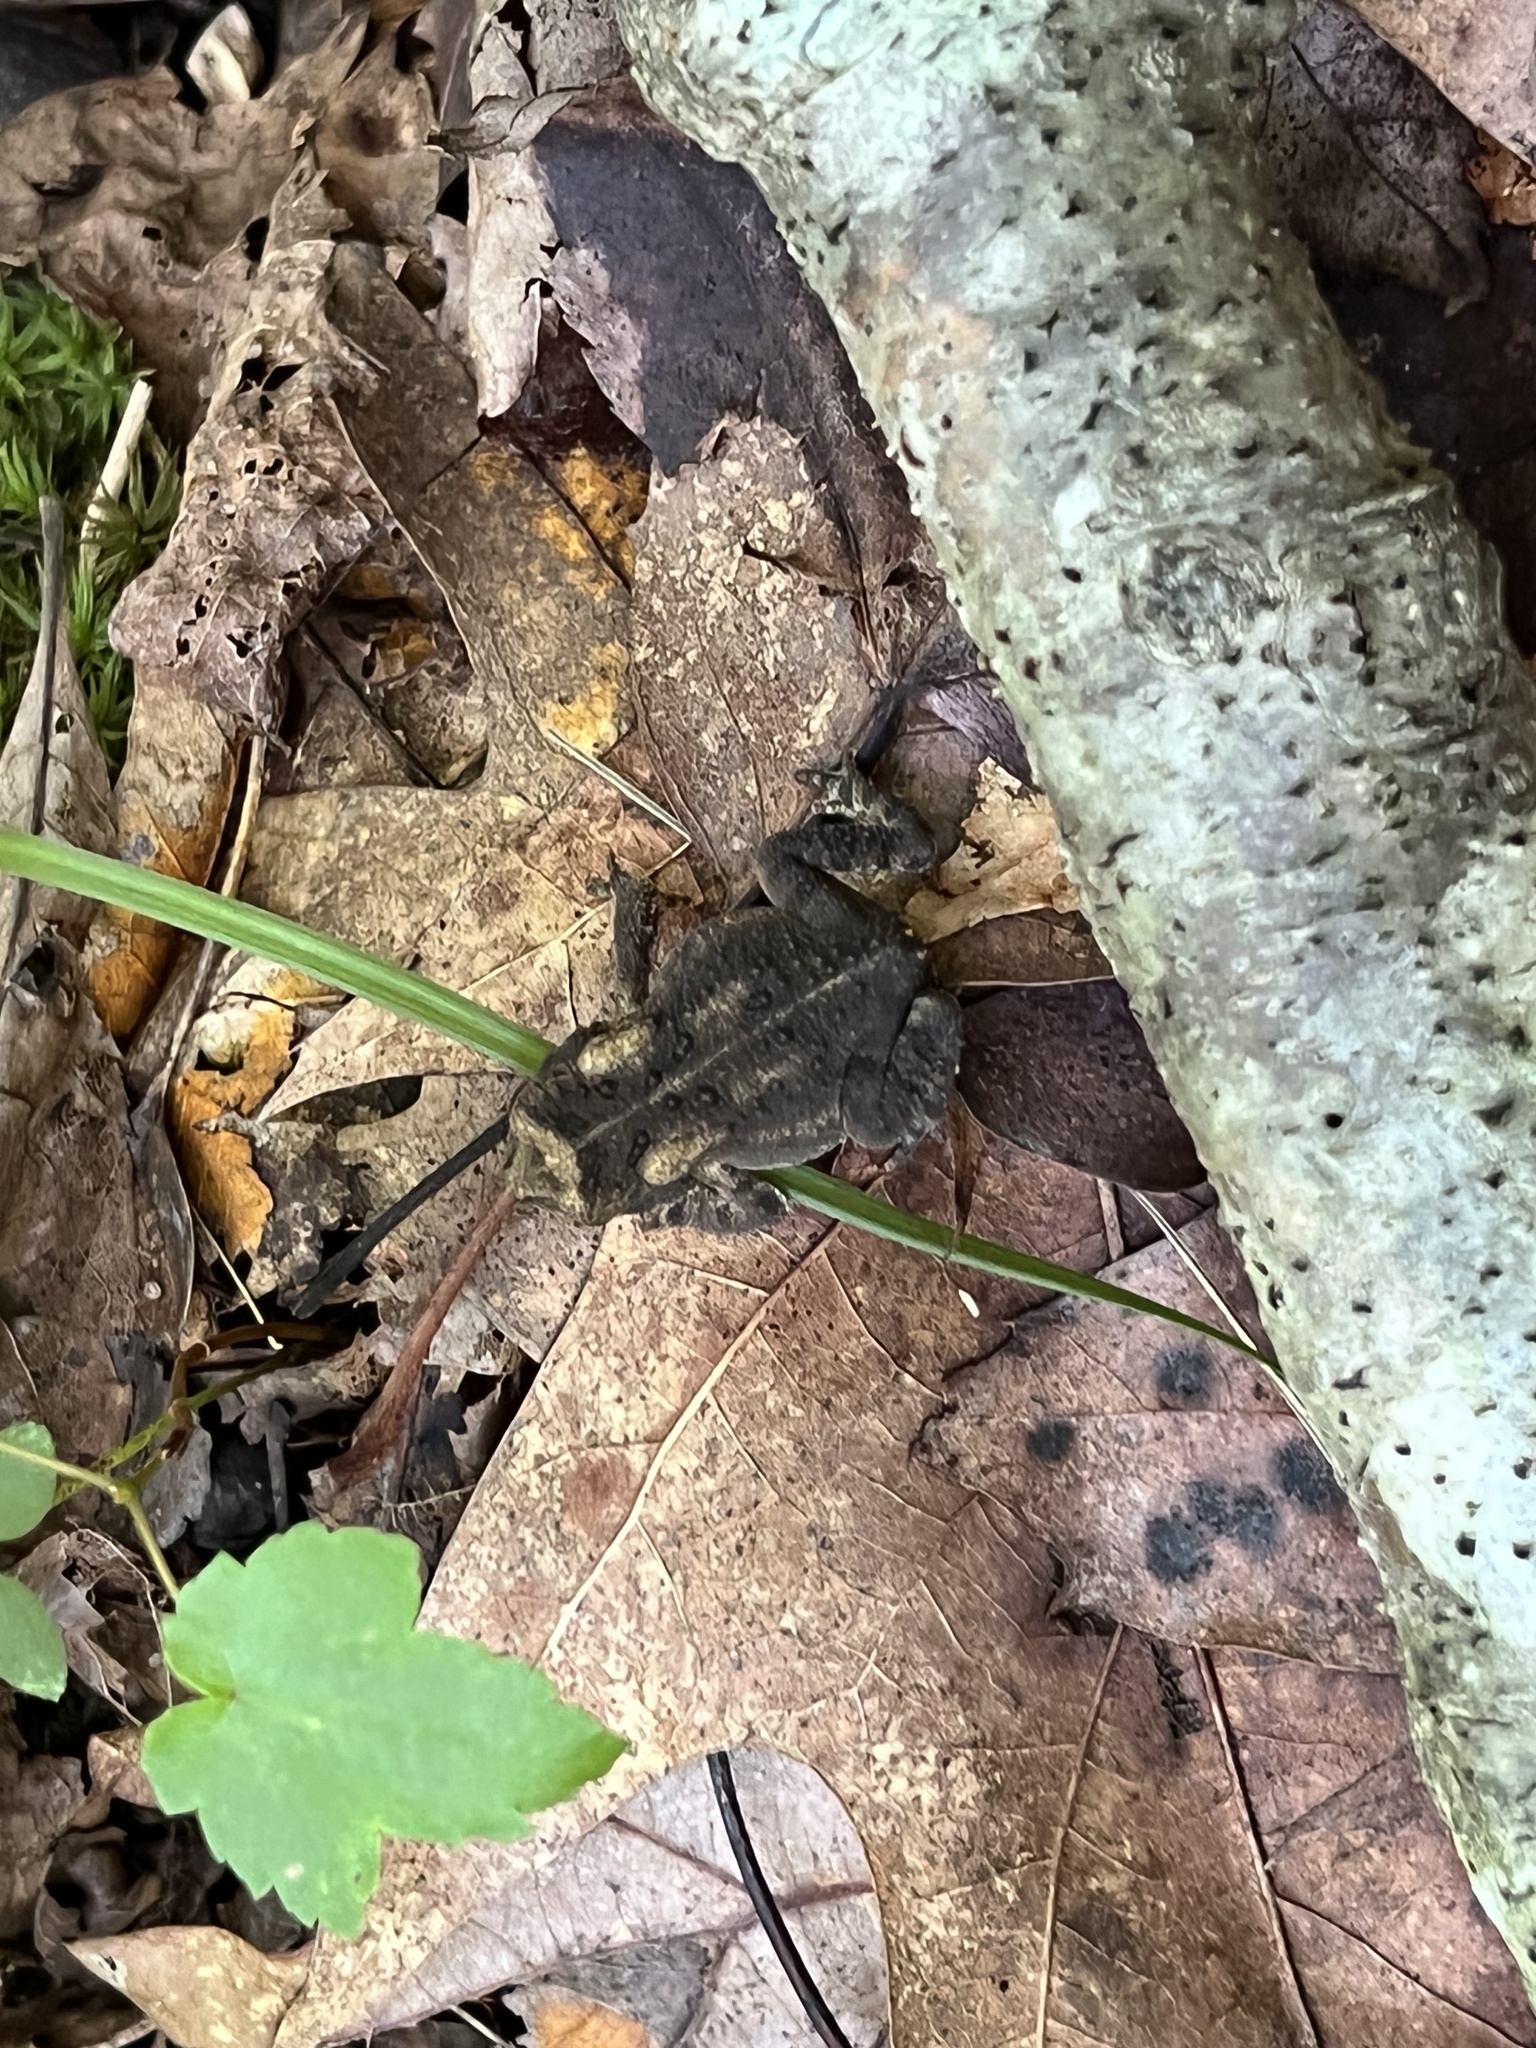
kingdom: Animalia
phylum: Chordata
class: Amphibia
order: Anura
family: Bufonidae
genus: Anaxyrus
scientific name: Anaxyrus americanus
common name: American toad
